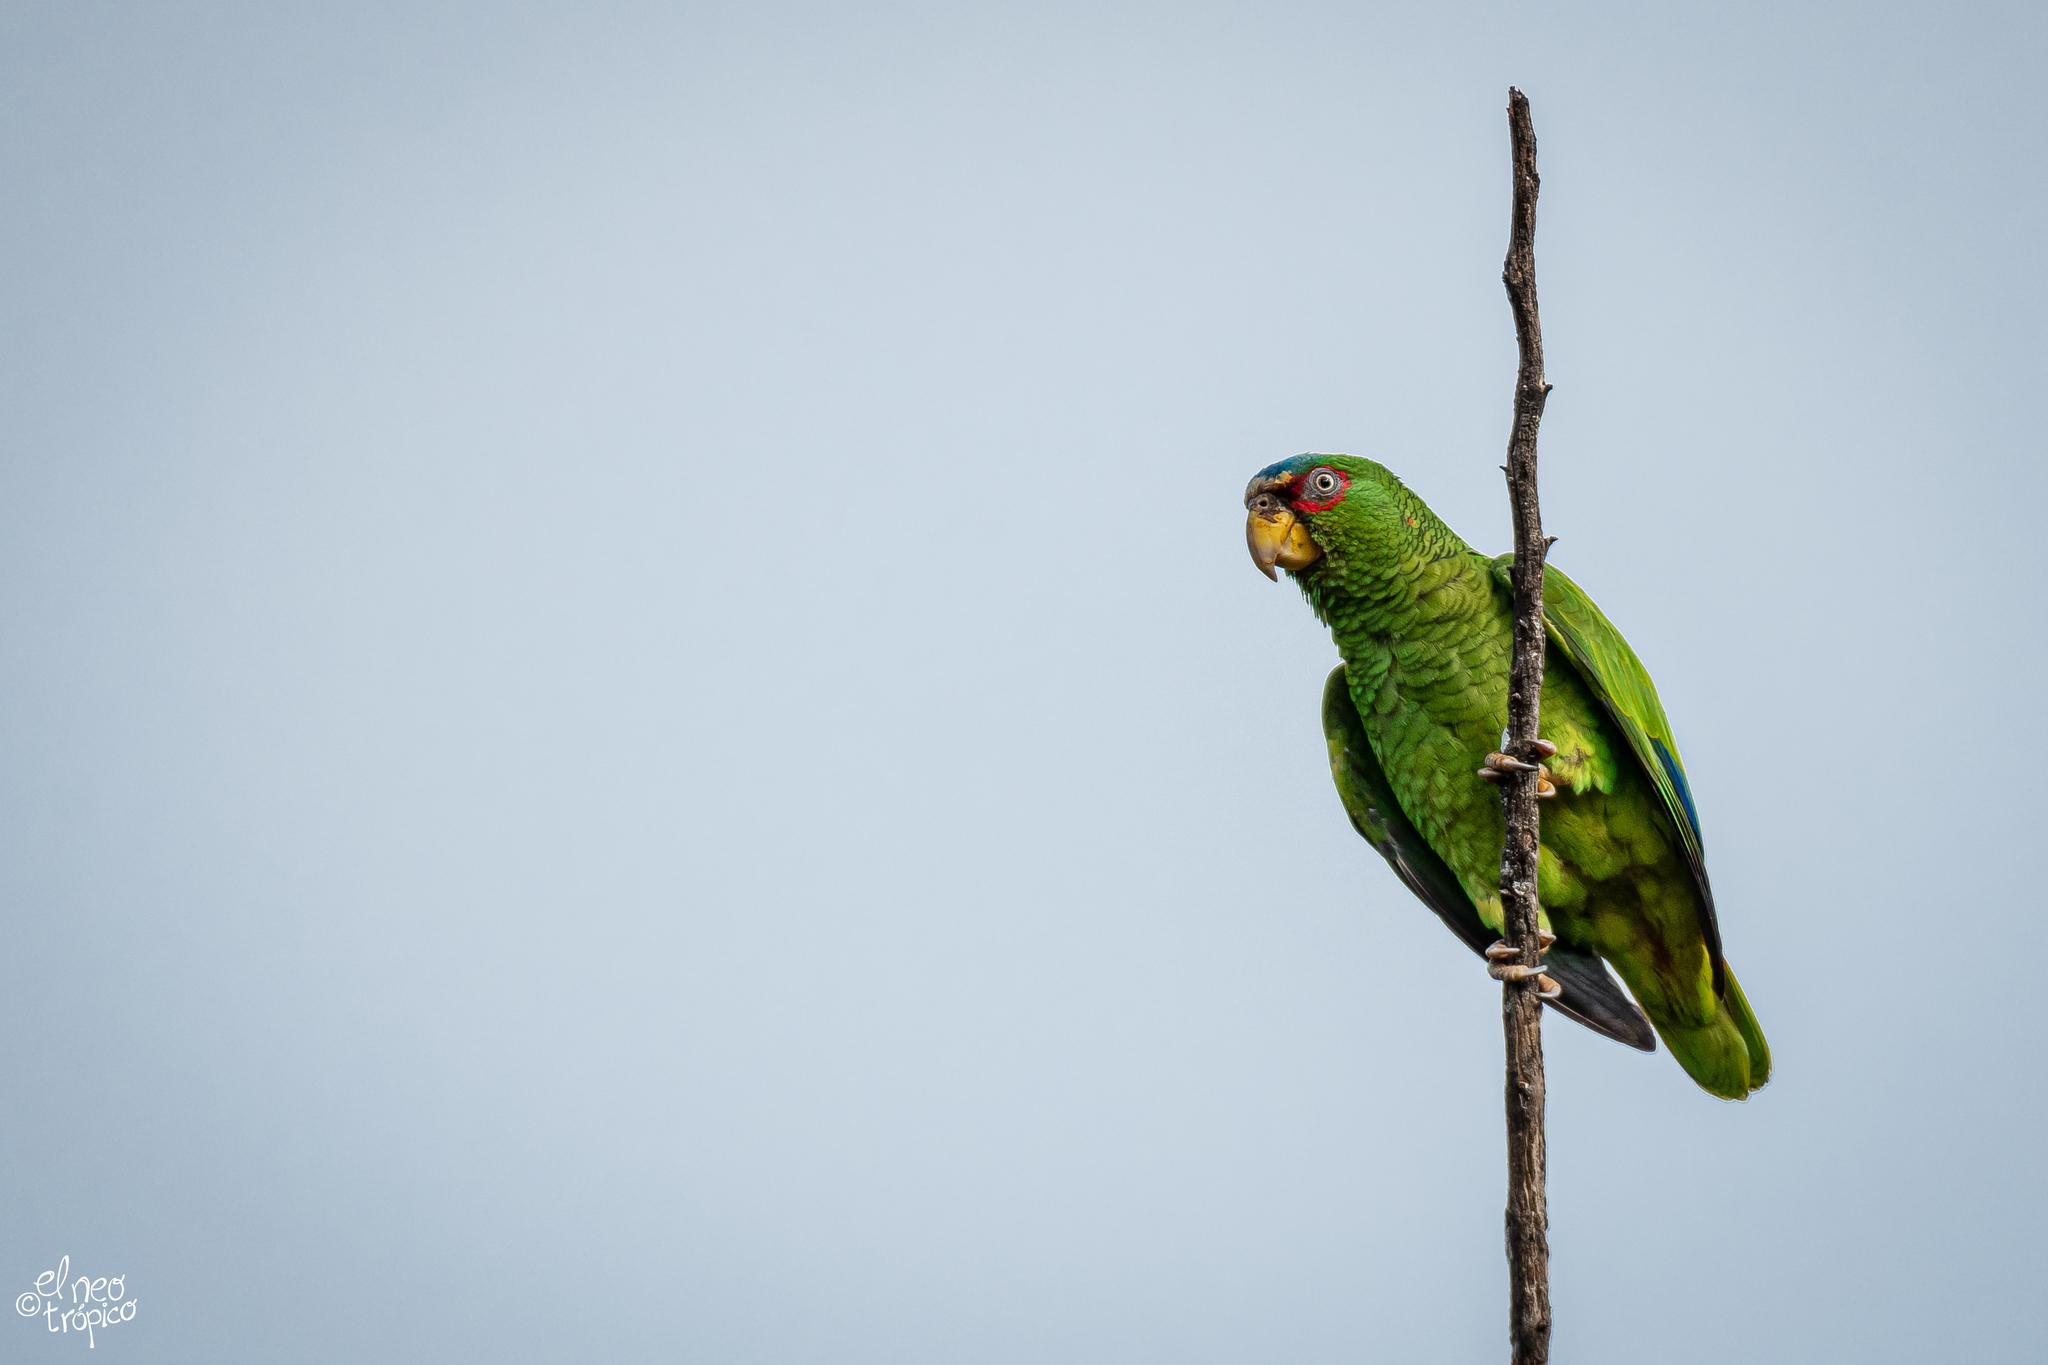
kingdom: Animalia
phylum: Chordata
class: Aves
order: Psittaciformes
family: Psittacidae
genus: Amazona
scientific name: Amazona albifrons
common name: White-fronted amazon
